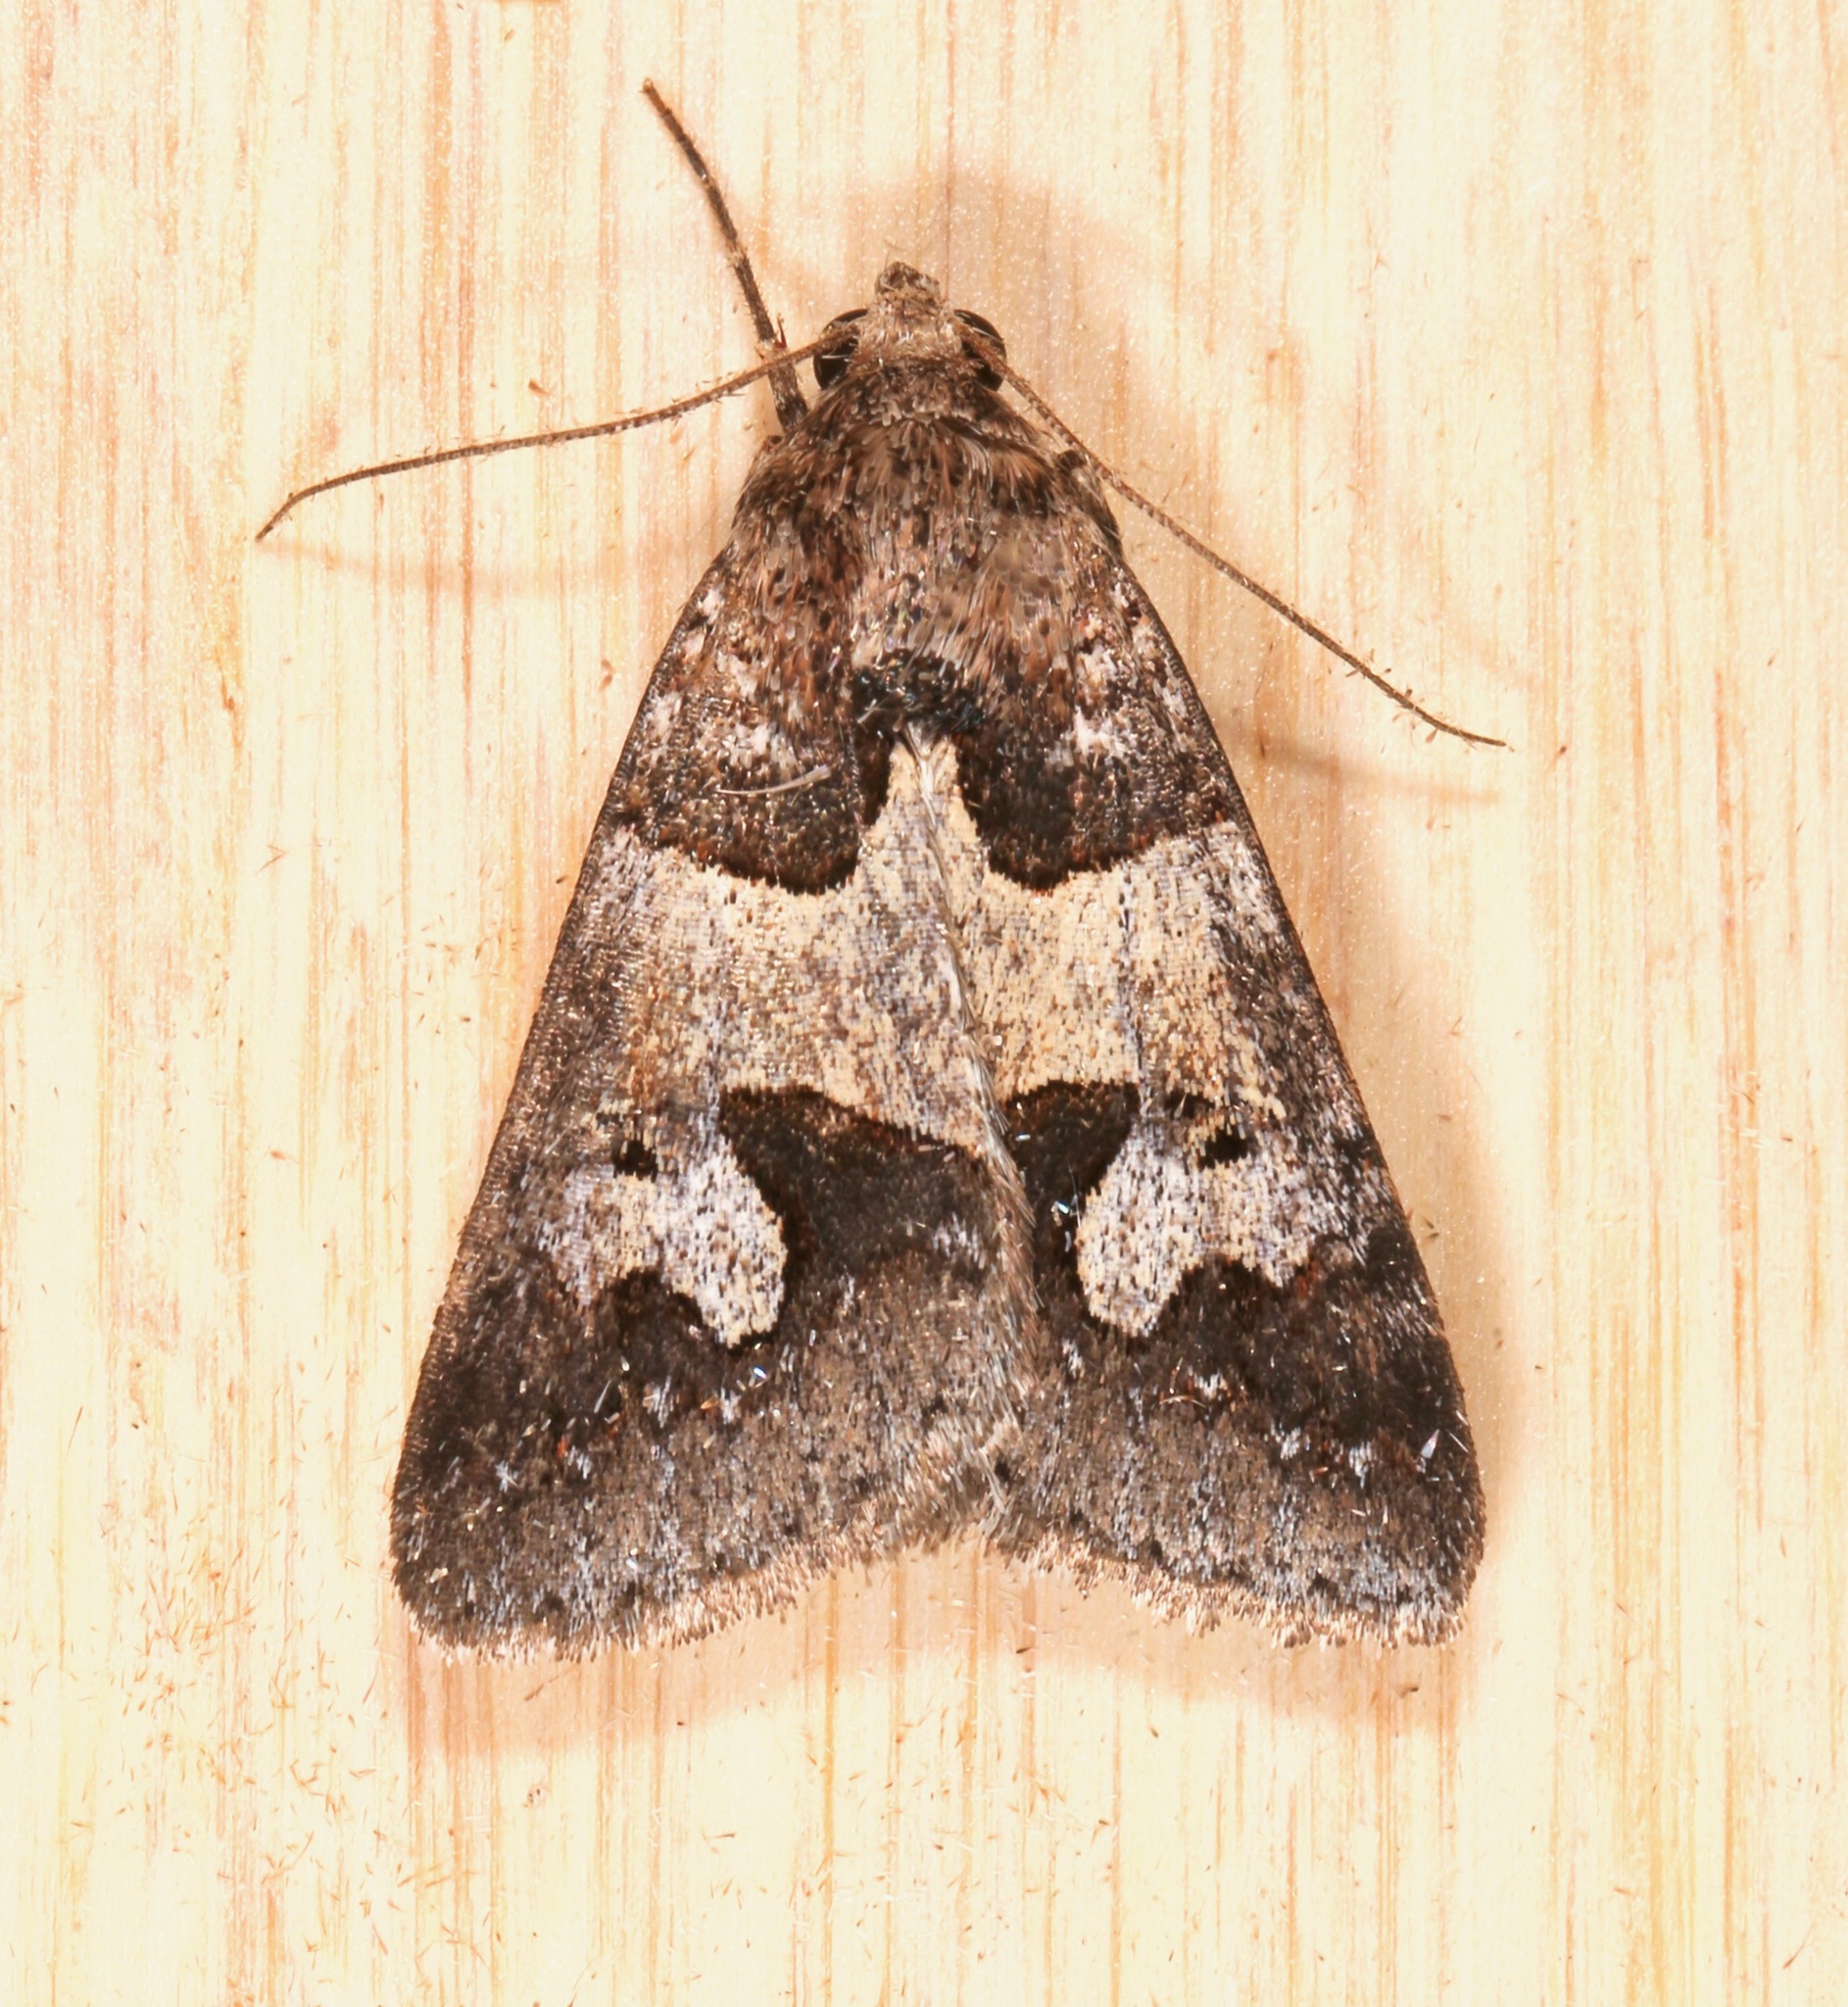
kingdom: Animalia
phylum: Arthropoda
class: Insecta
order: Lepidoptera
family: Erebidae
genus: Drasteria
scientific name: Drasteria graphica
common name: Coastal graphic
